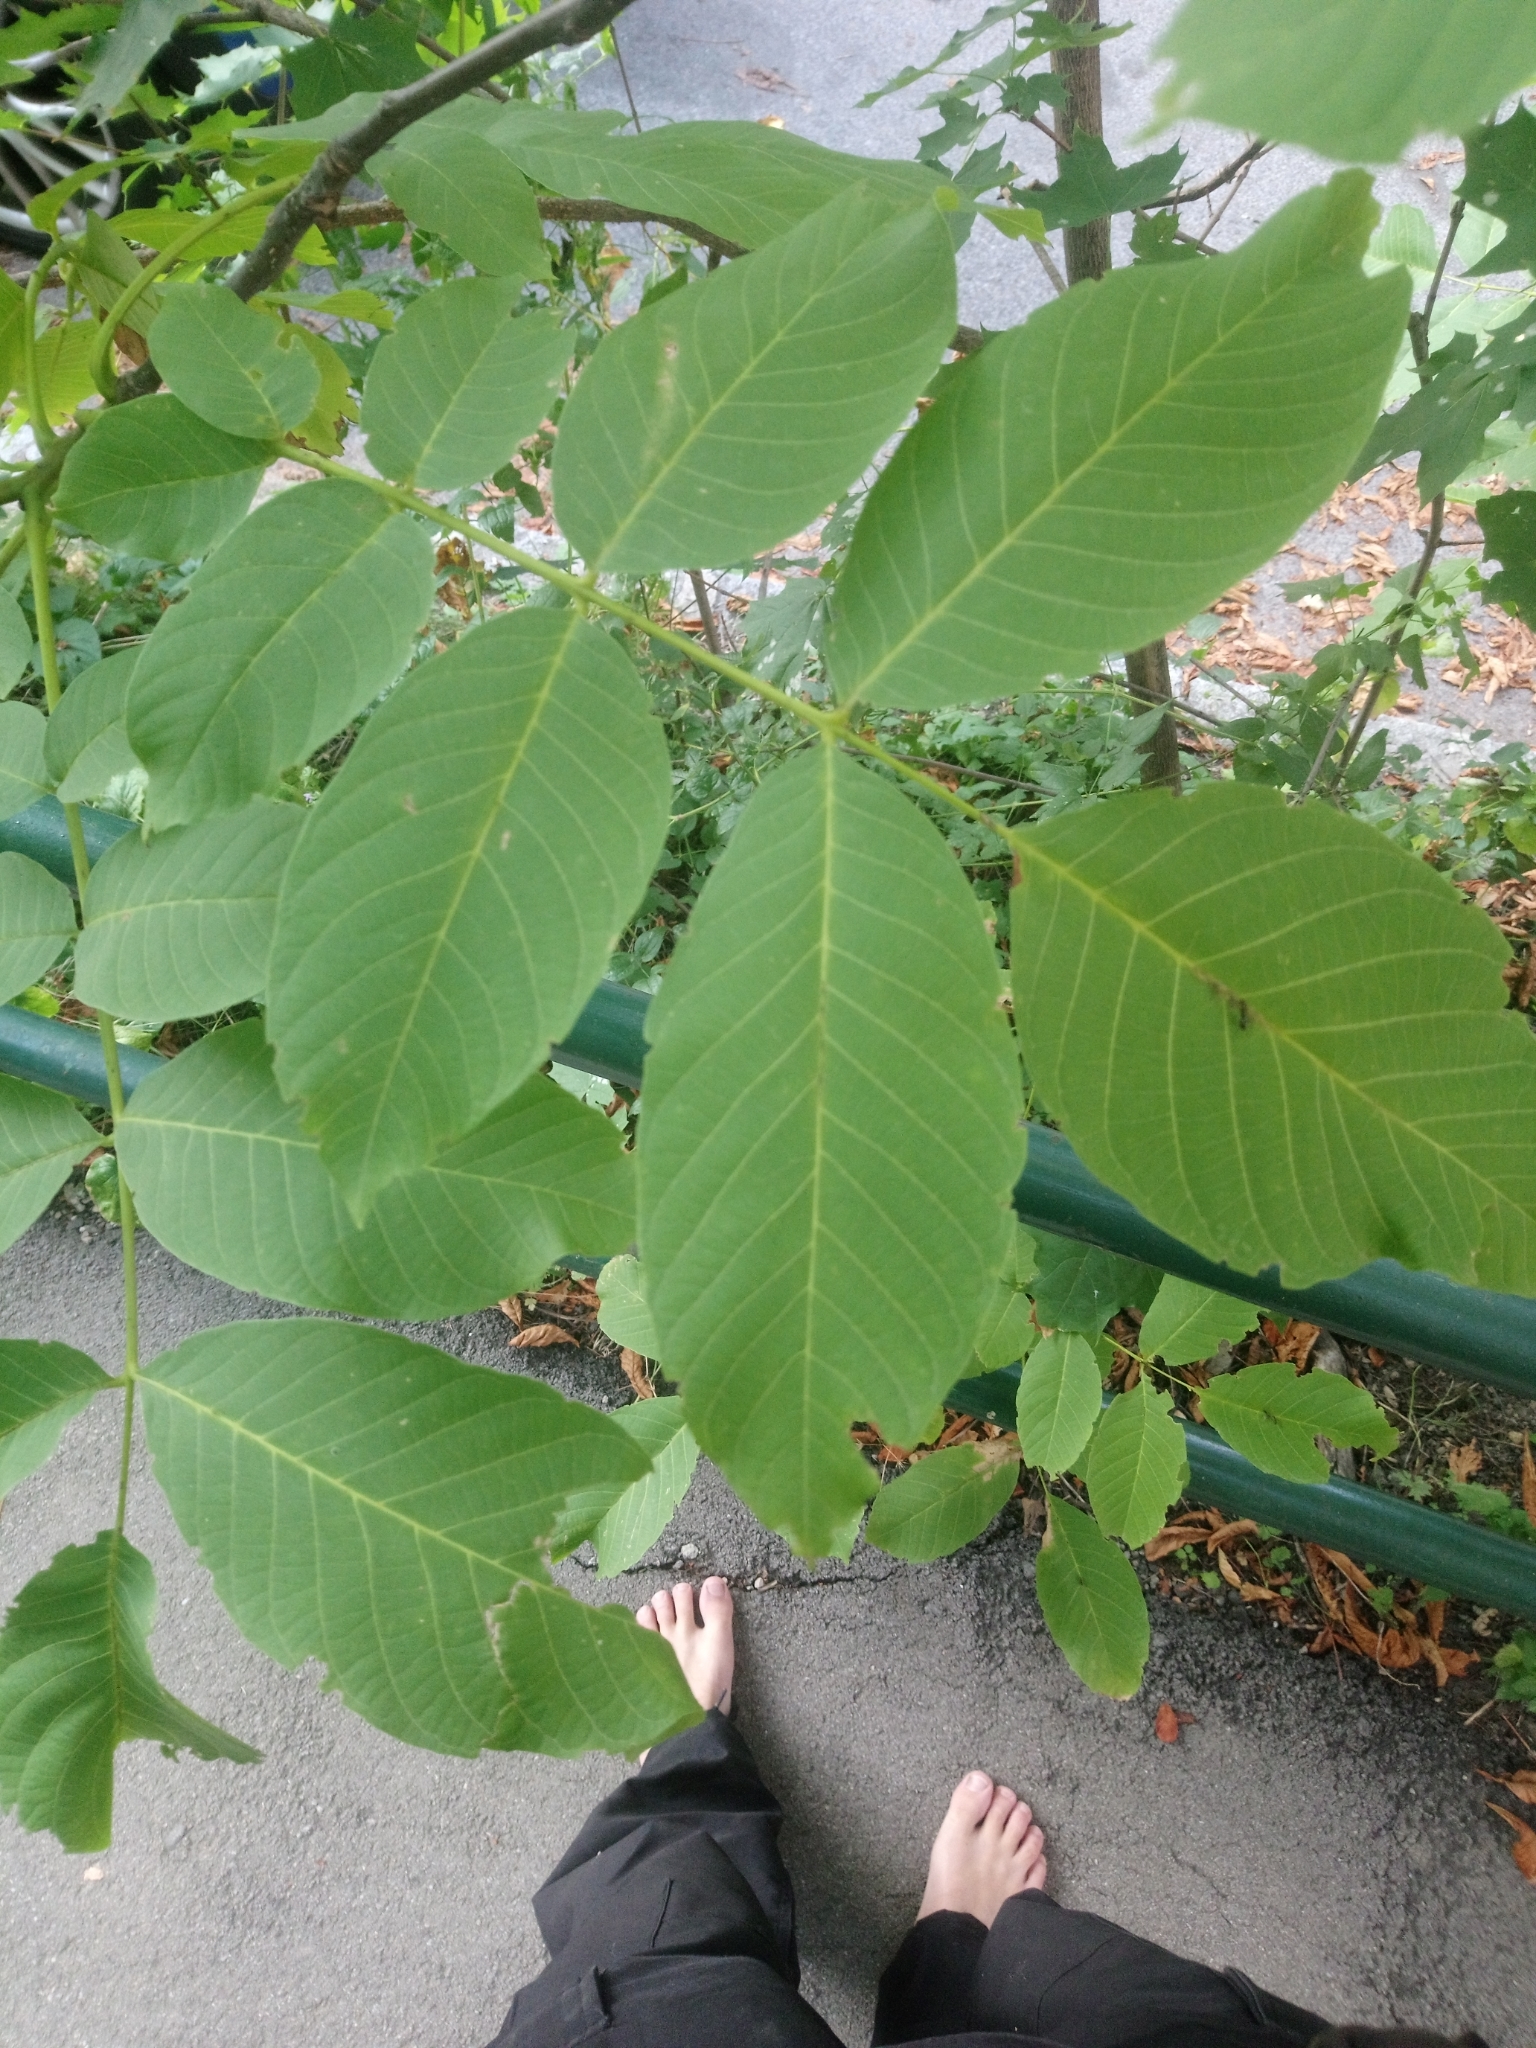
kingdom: Plantae
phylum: Tracheophyta
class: Magnoliopsida
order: Fagales
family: Juglandaceae
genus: Juglans
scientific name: Juglans regia
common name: Walnut
